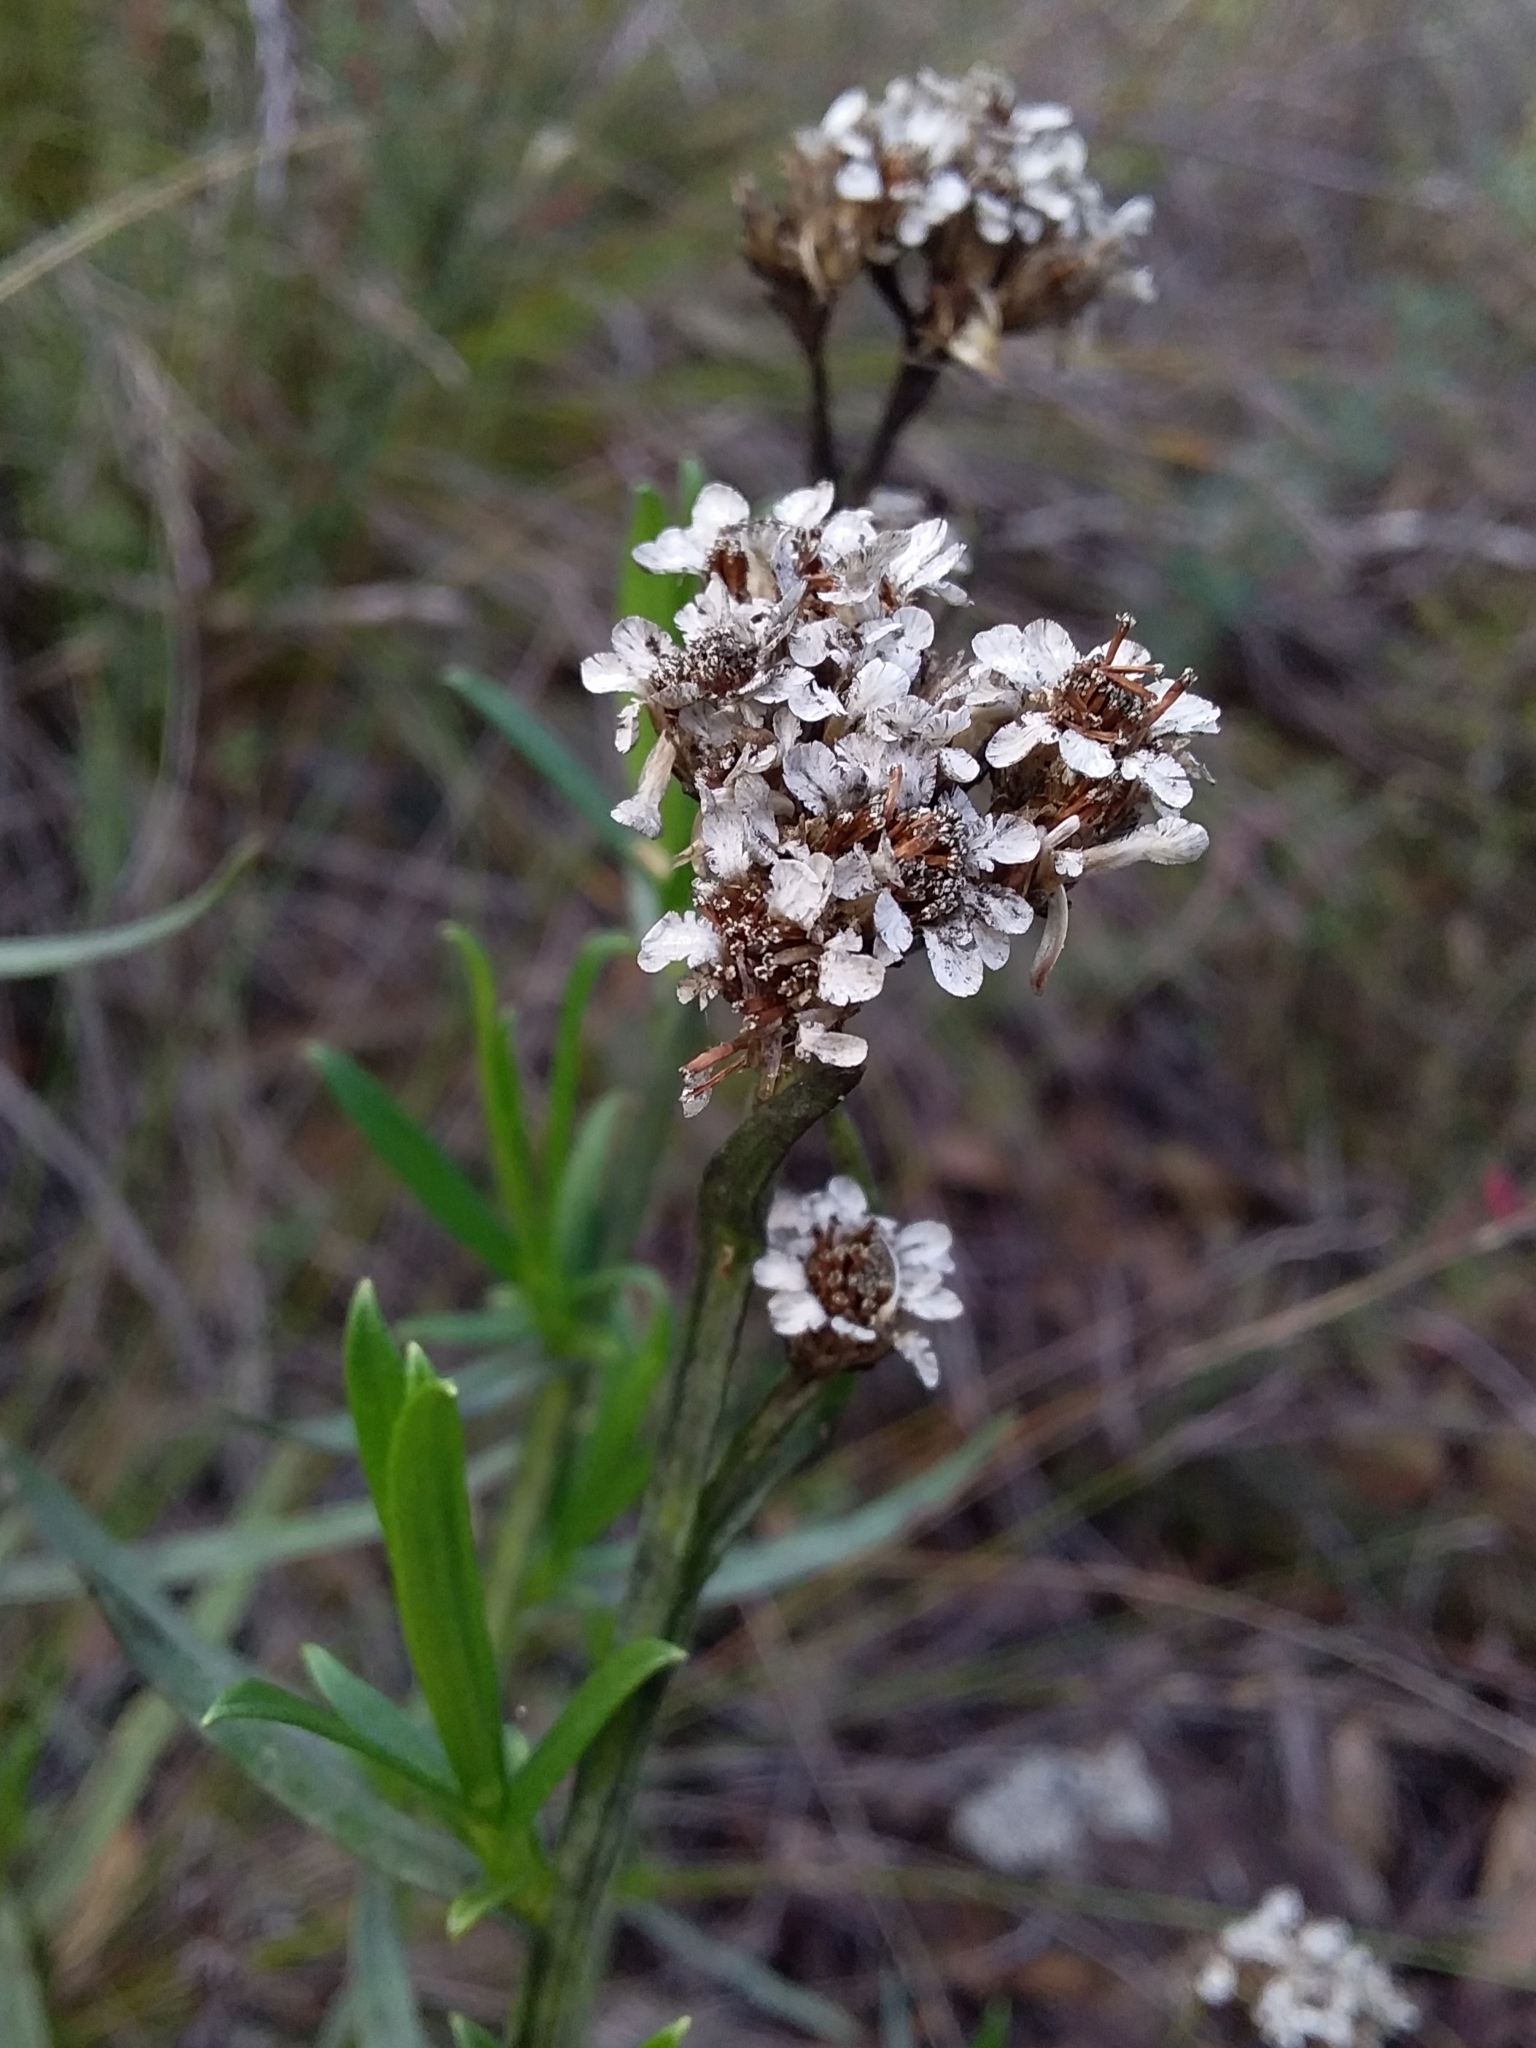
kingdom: Plantae
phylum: Tracheophyta
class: Magnoliopsida
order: Asterales
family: Asteraceae
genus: Ixodia
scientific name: Ixodia achillaeoides
